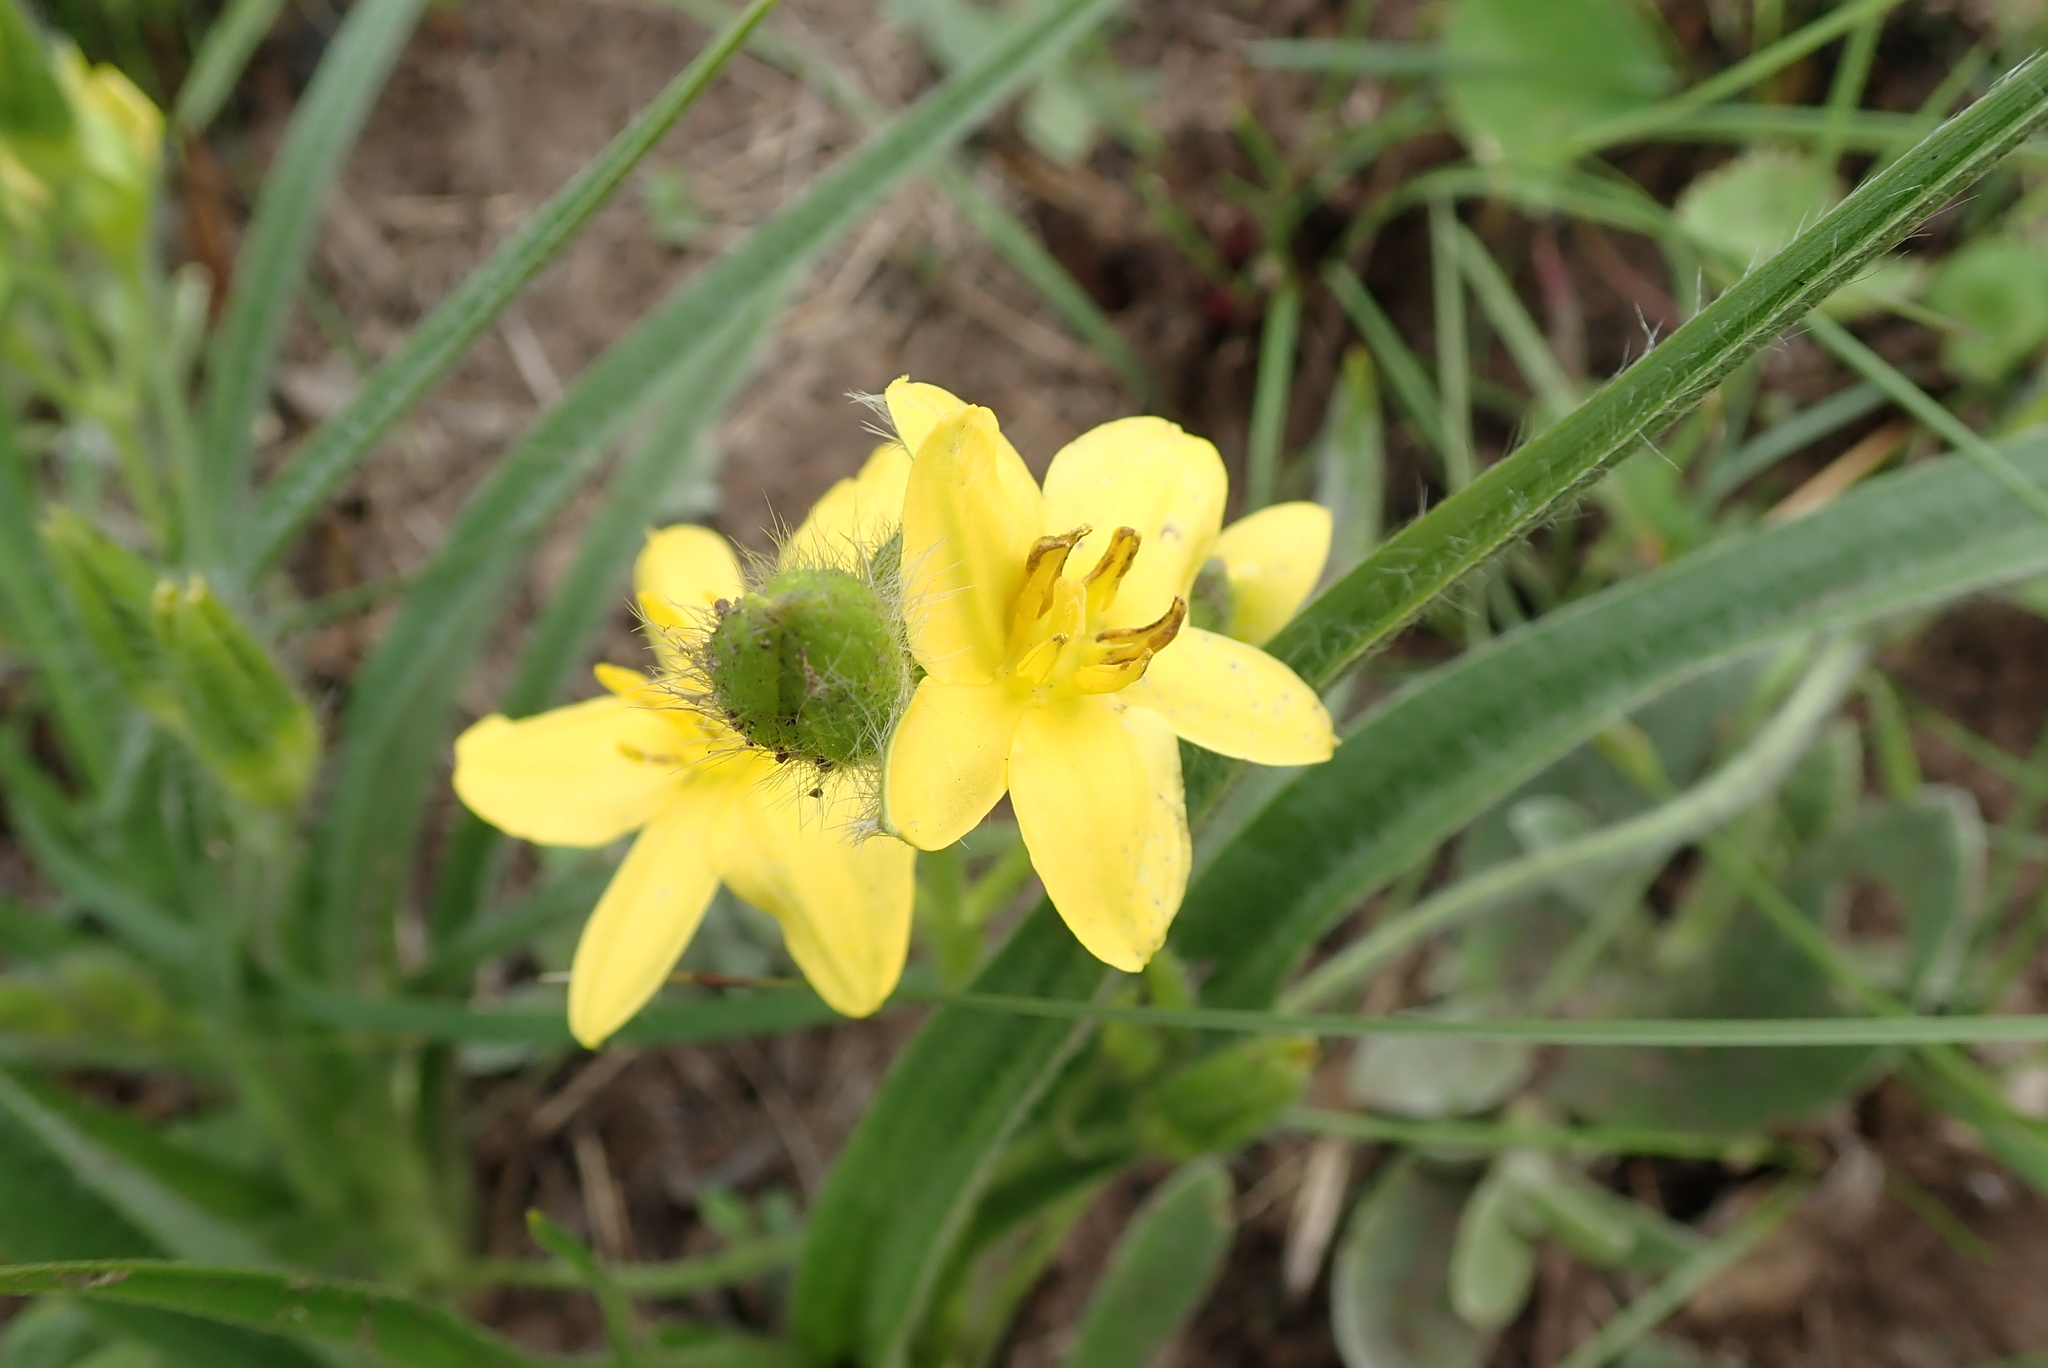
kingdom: Plantae
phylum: Tracheophyta
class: Liliopsida
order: Asparagales
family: Hypoxidaceae
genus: Hypoxis
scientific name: Hypoxis hemerocallidea
